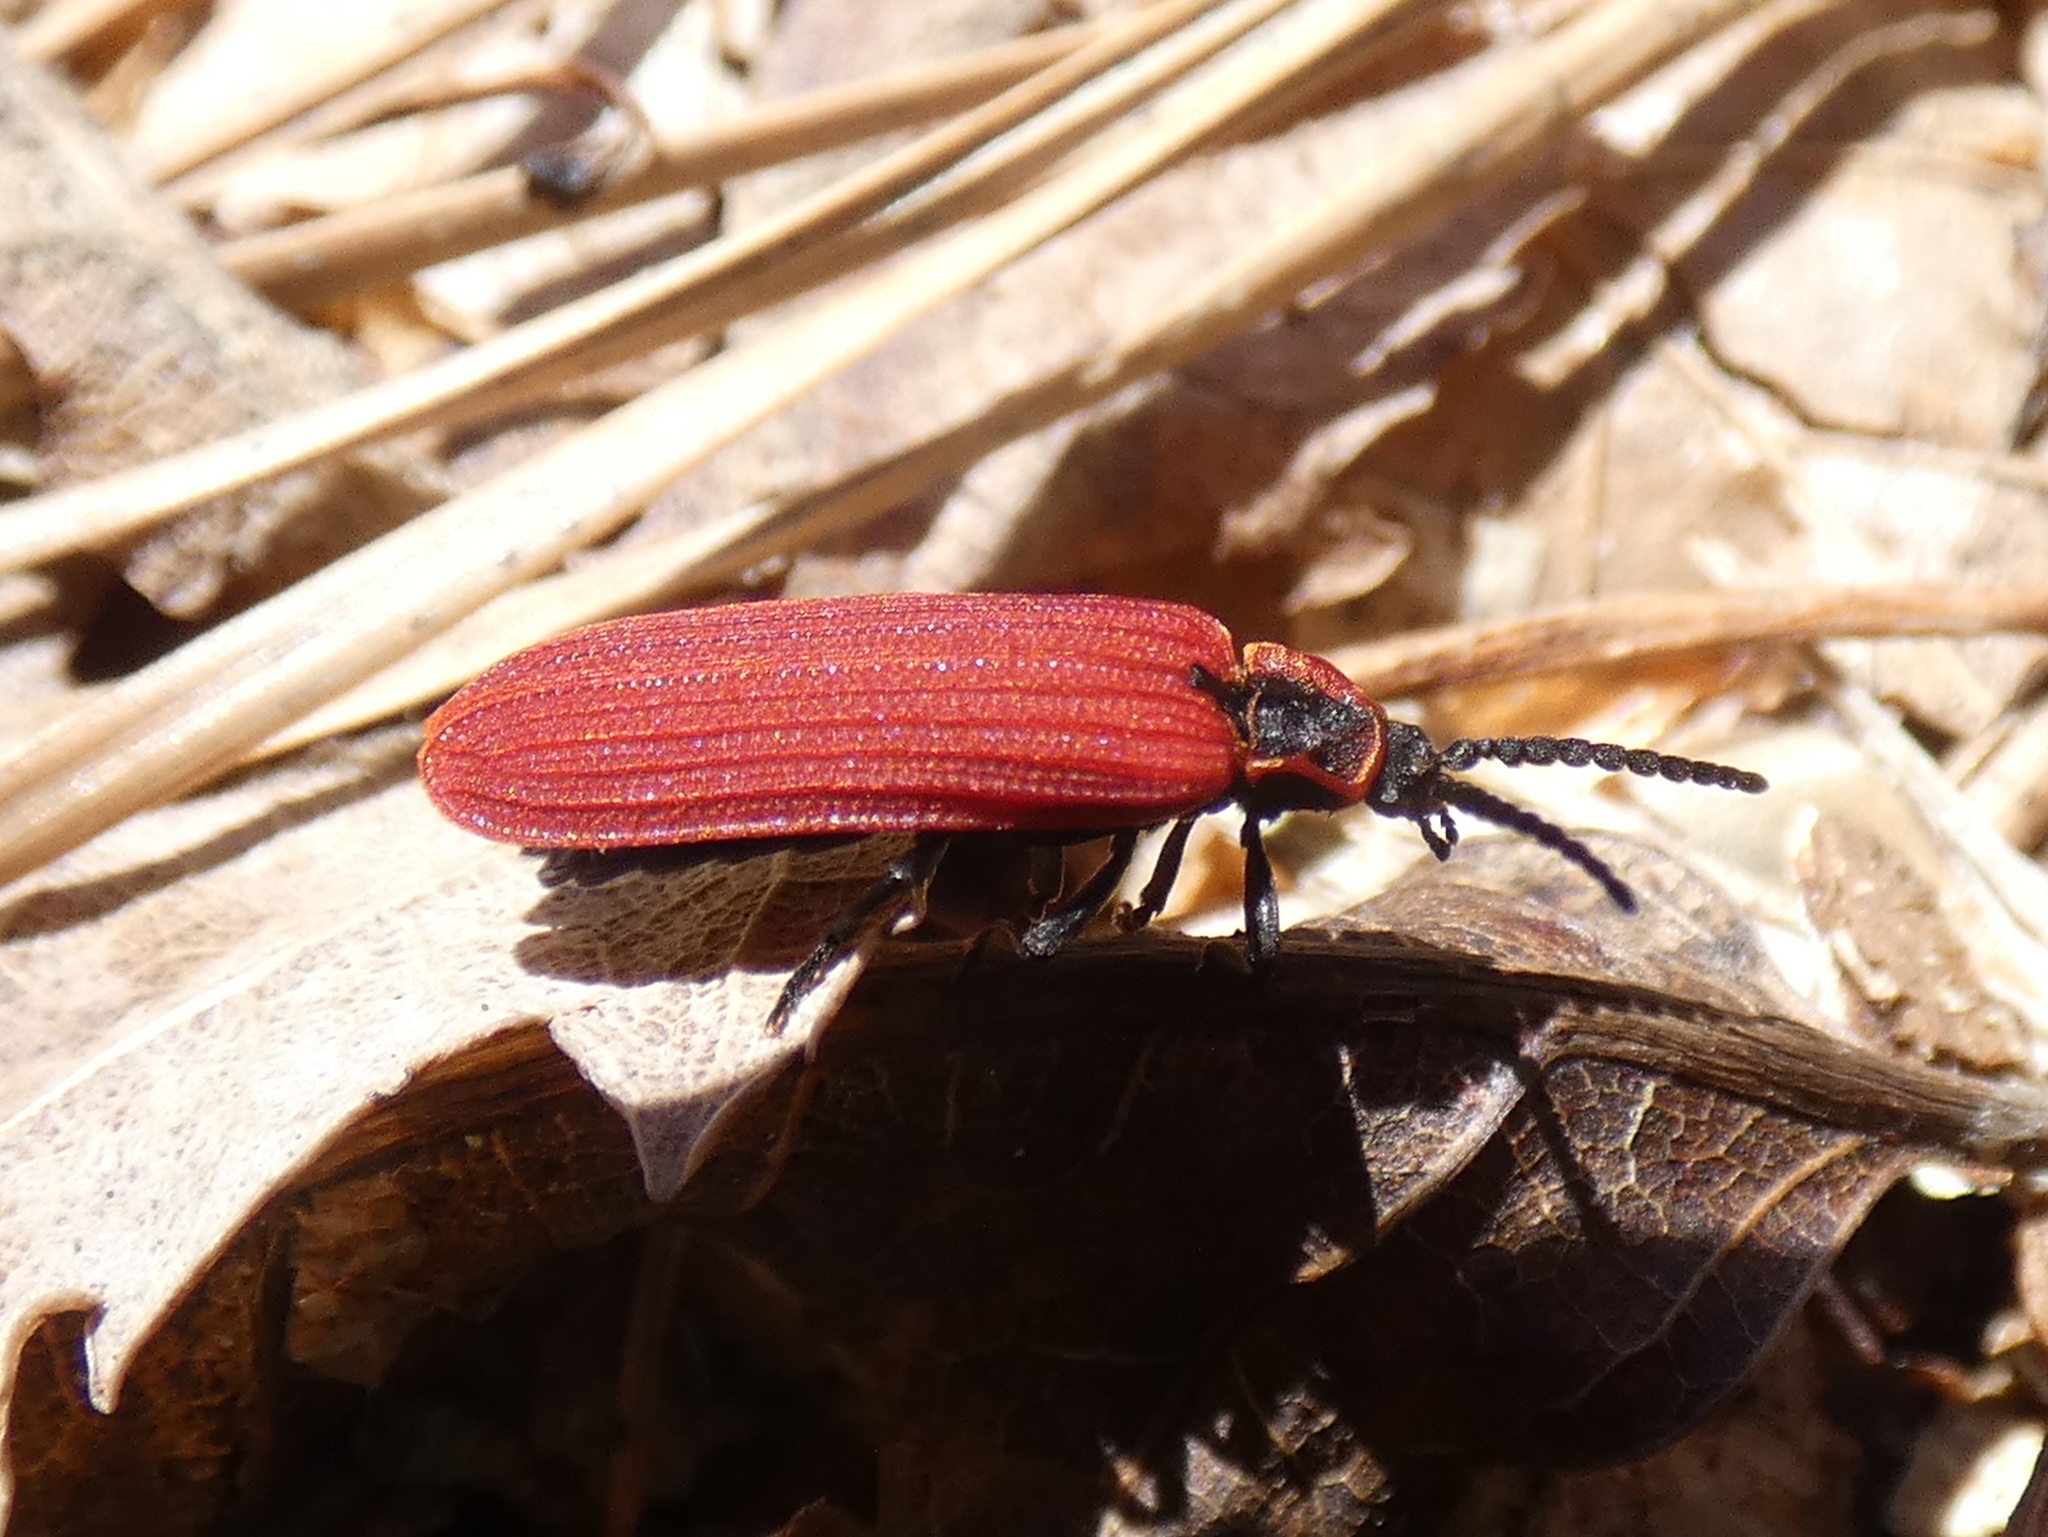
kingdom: Animalia
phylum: Arthropoda
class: Insecta
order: Coleoptera
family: Lycidae
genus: Dictyoptera
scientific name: Dictyoptera aurora
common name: Golden net-winged beetle
